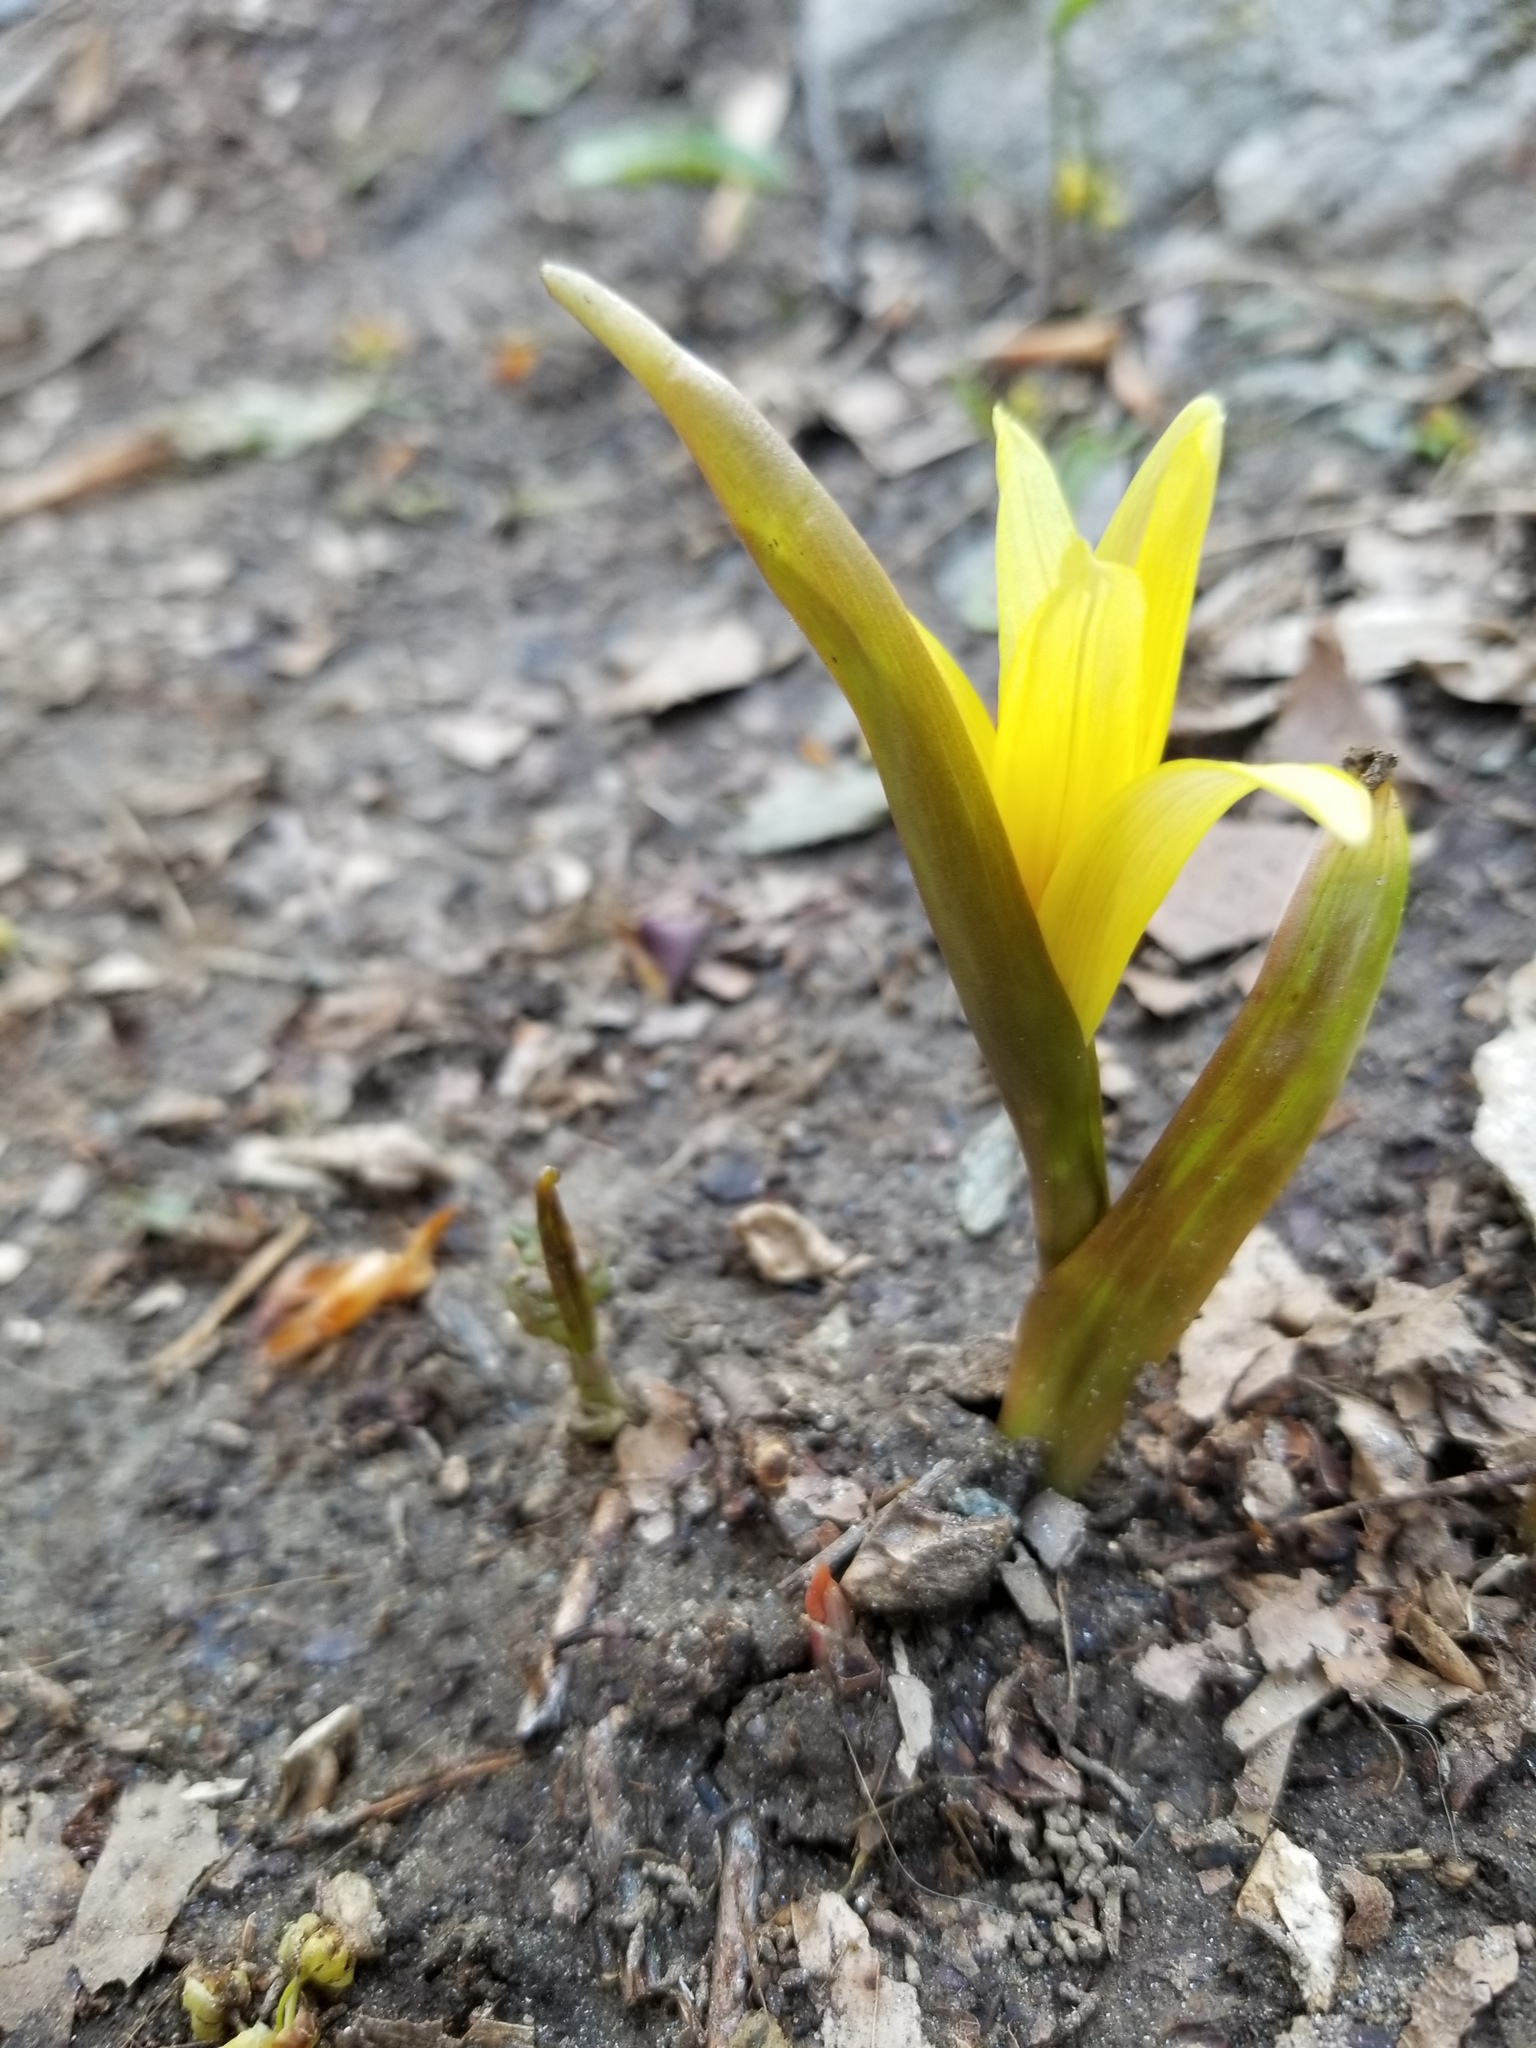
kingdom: Plantae
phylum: Tracheophyta
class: Liliopsida
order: Liliales
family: Liliaceae
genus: Erythronium
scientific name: Erythronium americanum
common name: Yellow adder's-tongue
